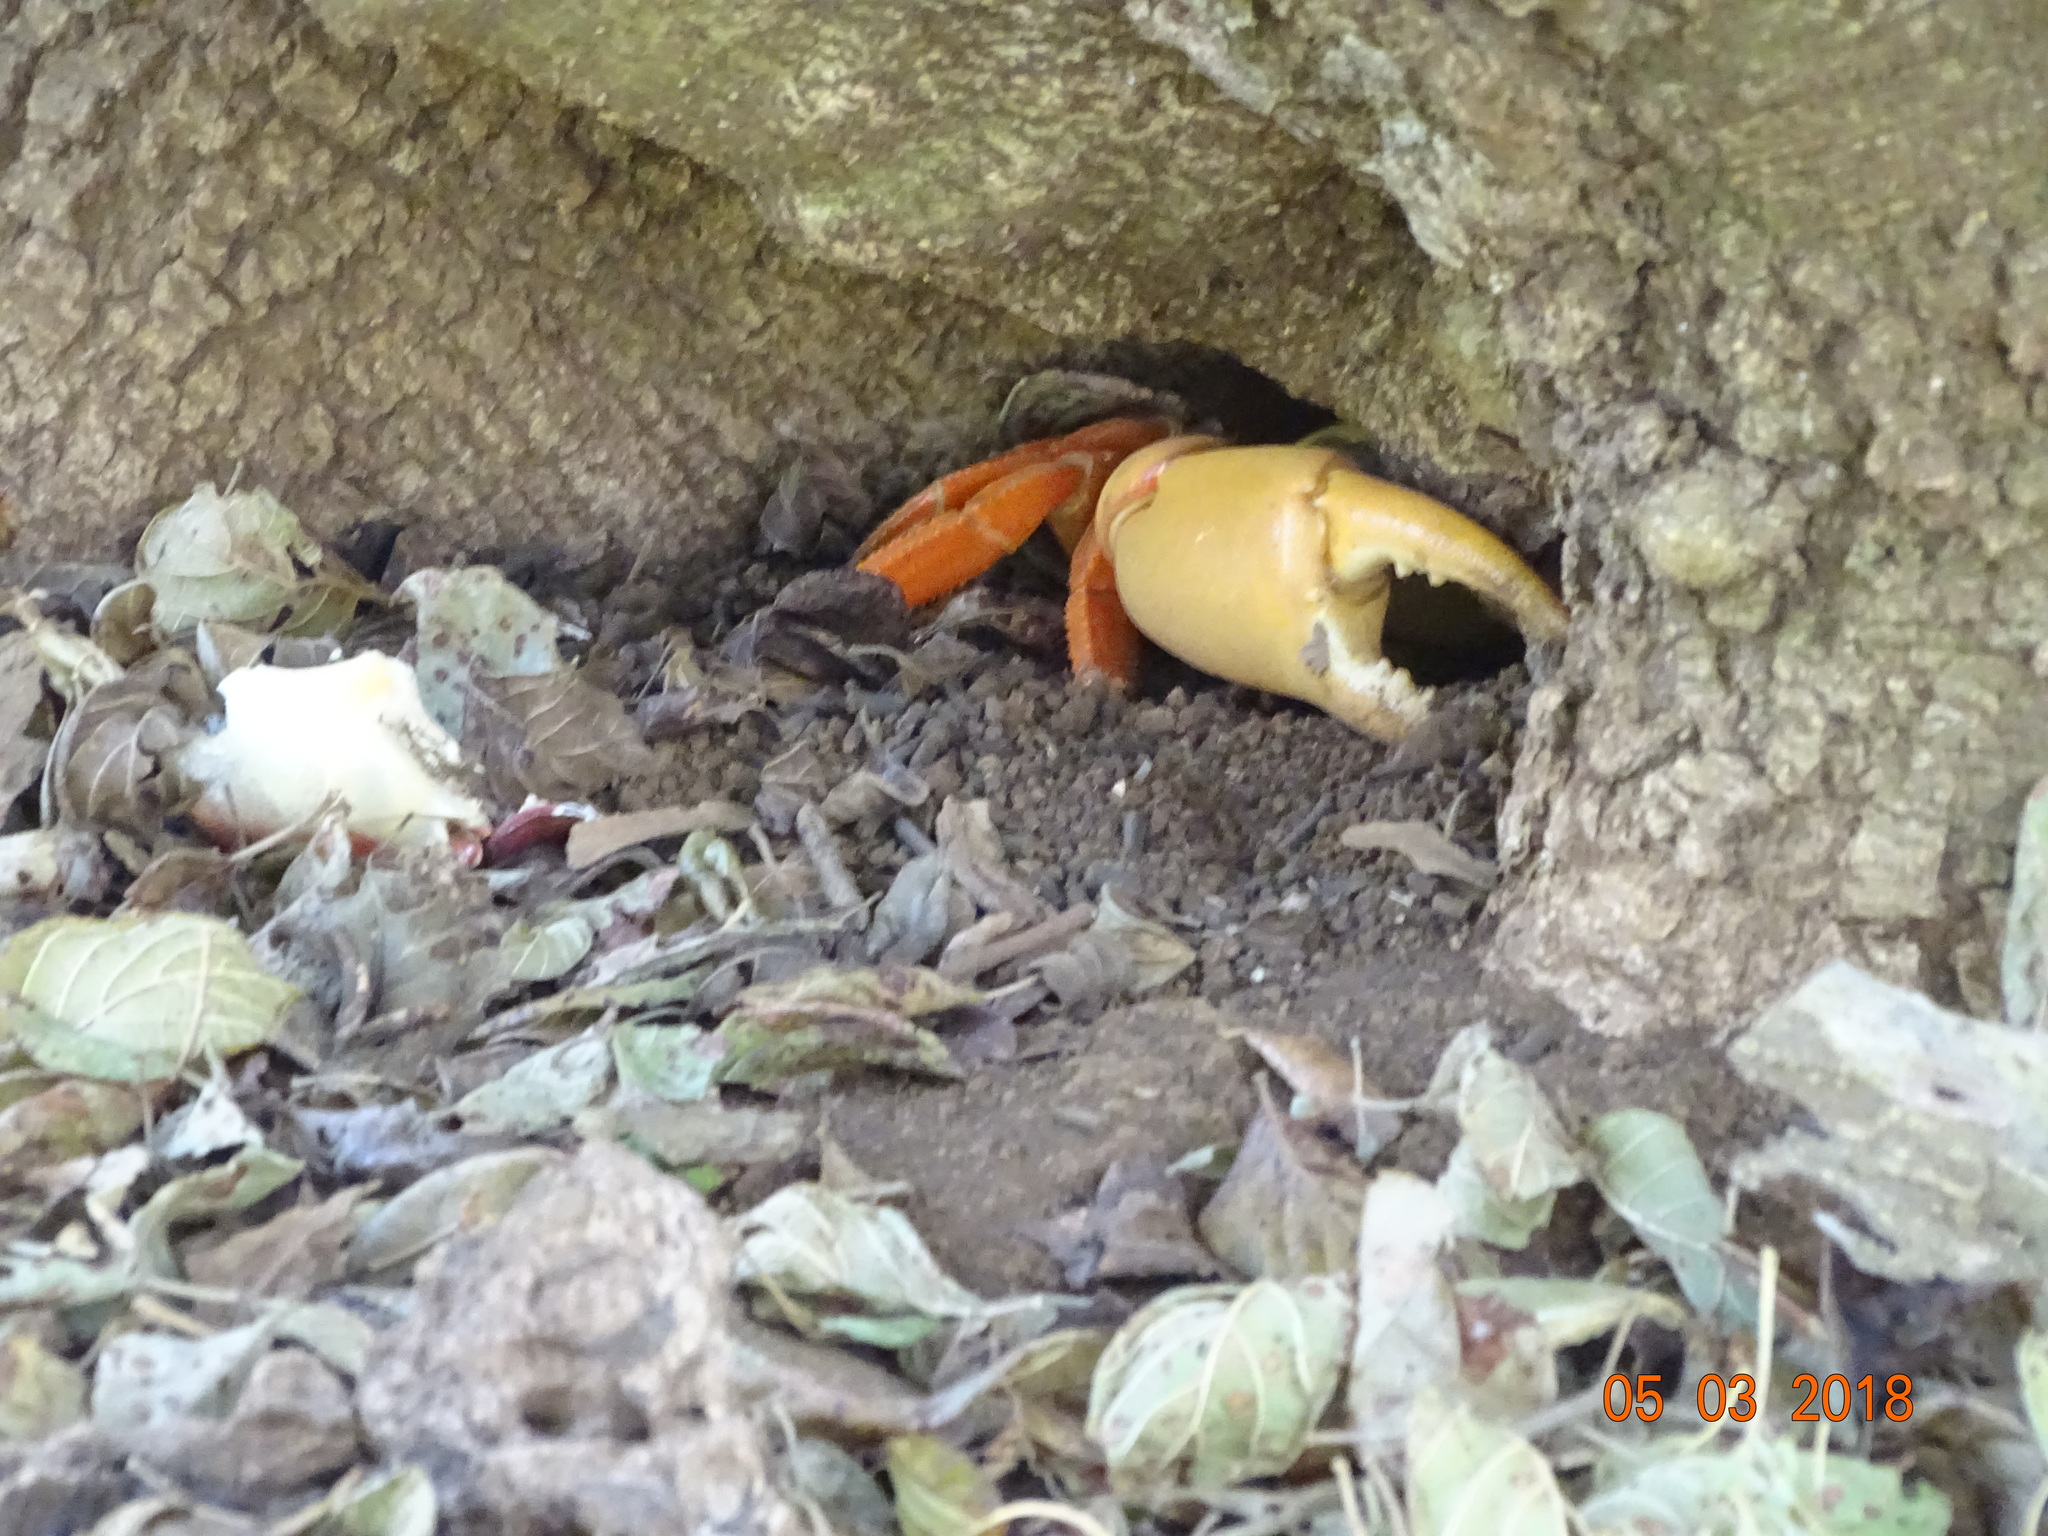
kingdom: Animalia
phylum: Arthropoda
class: Malacostraca
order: Decapoda
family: Gecarcinidae
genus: Johngarthia
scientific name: Johngarthia oceanica
